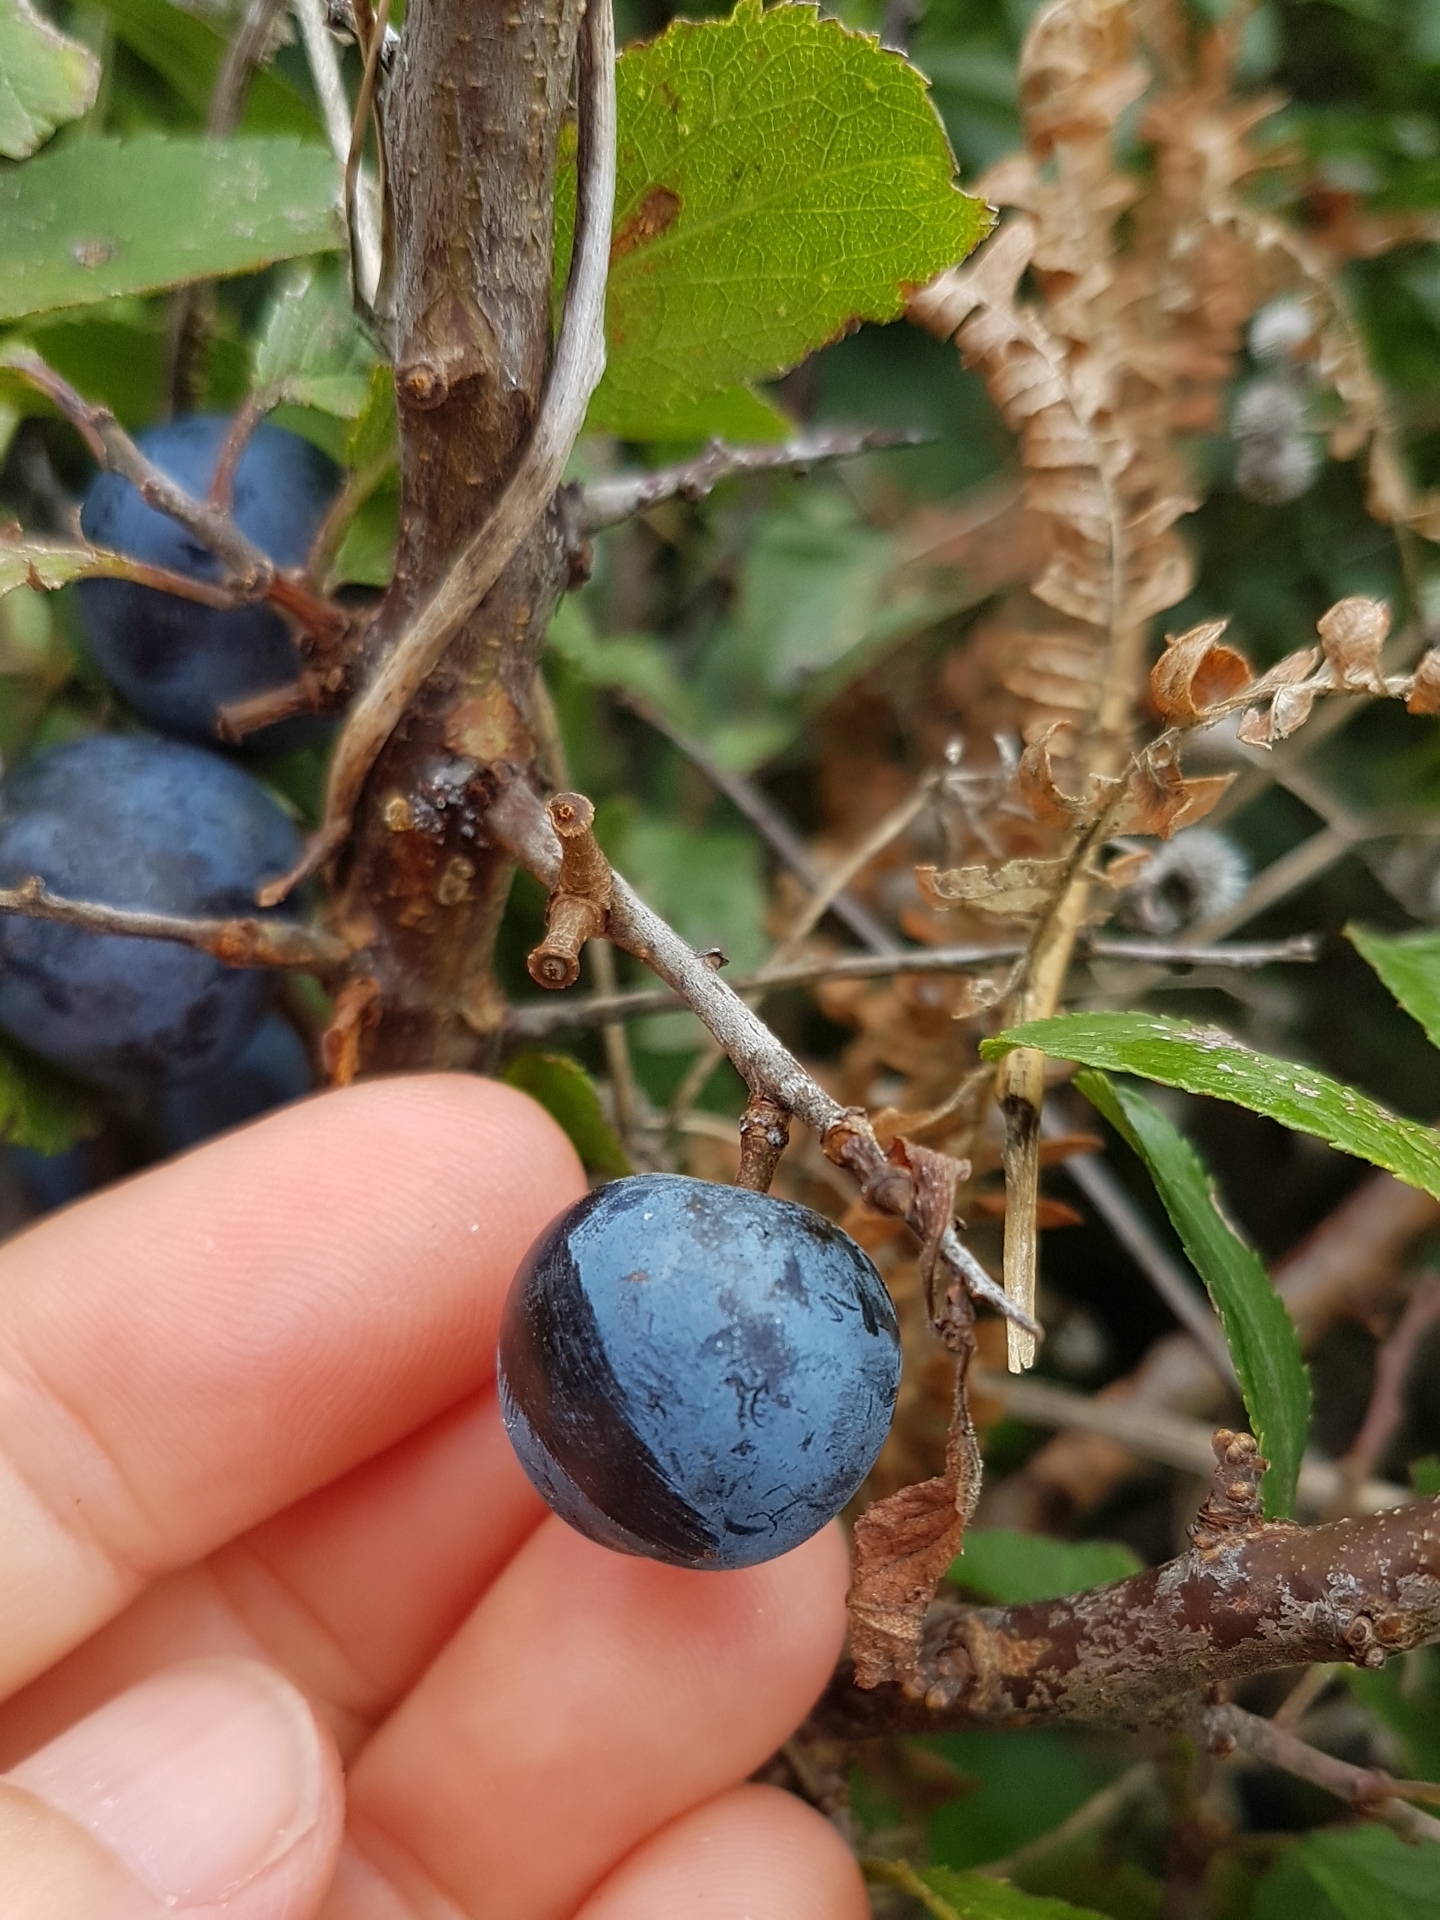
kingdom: Plantae
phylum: Tracheophyta
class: Magnoliopsida
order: Rosales
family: Rosaceae
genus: Prunus
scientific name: Prunus spinosa
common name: Blackthorn
